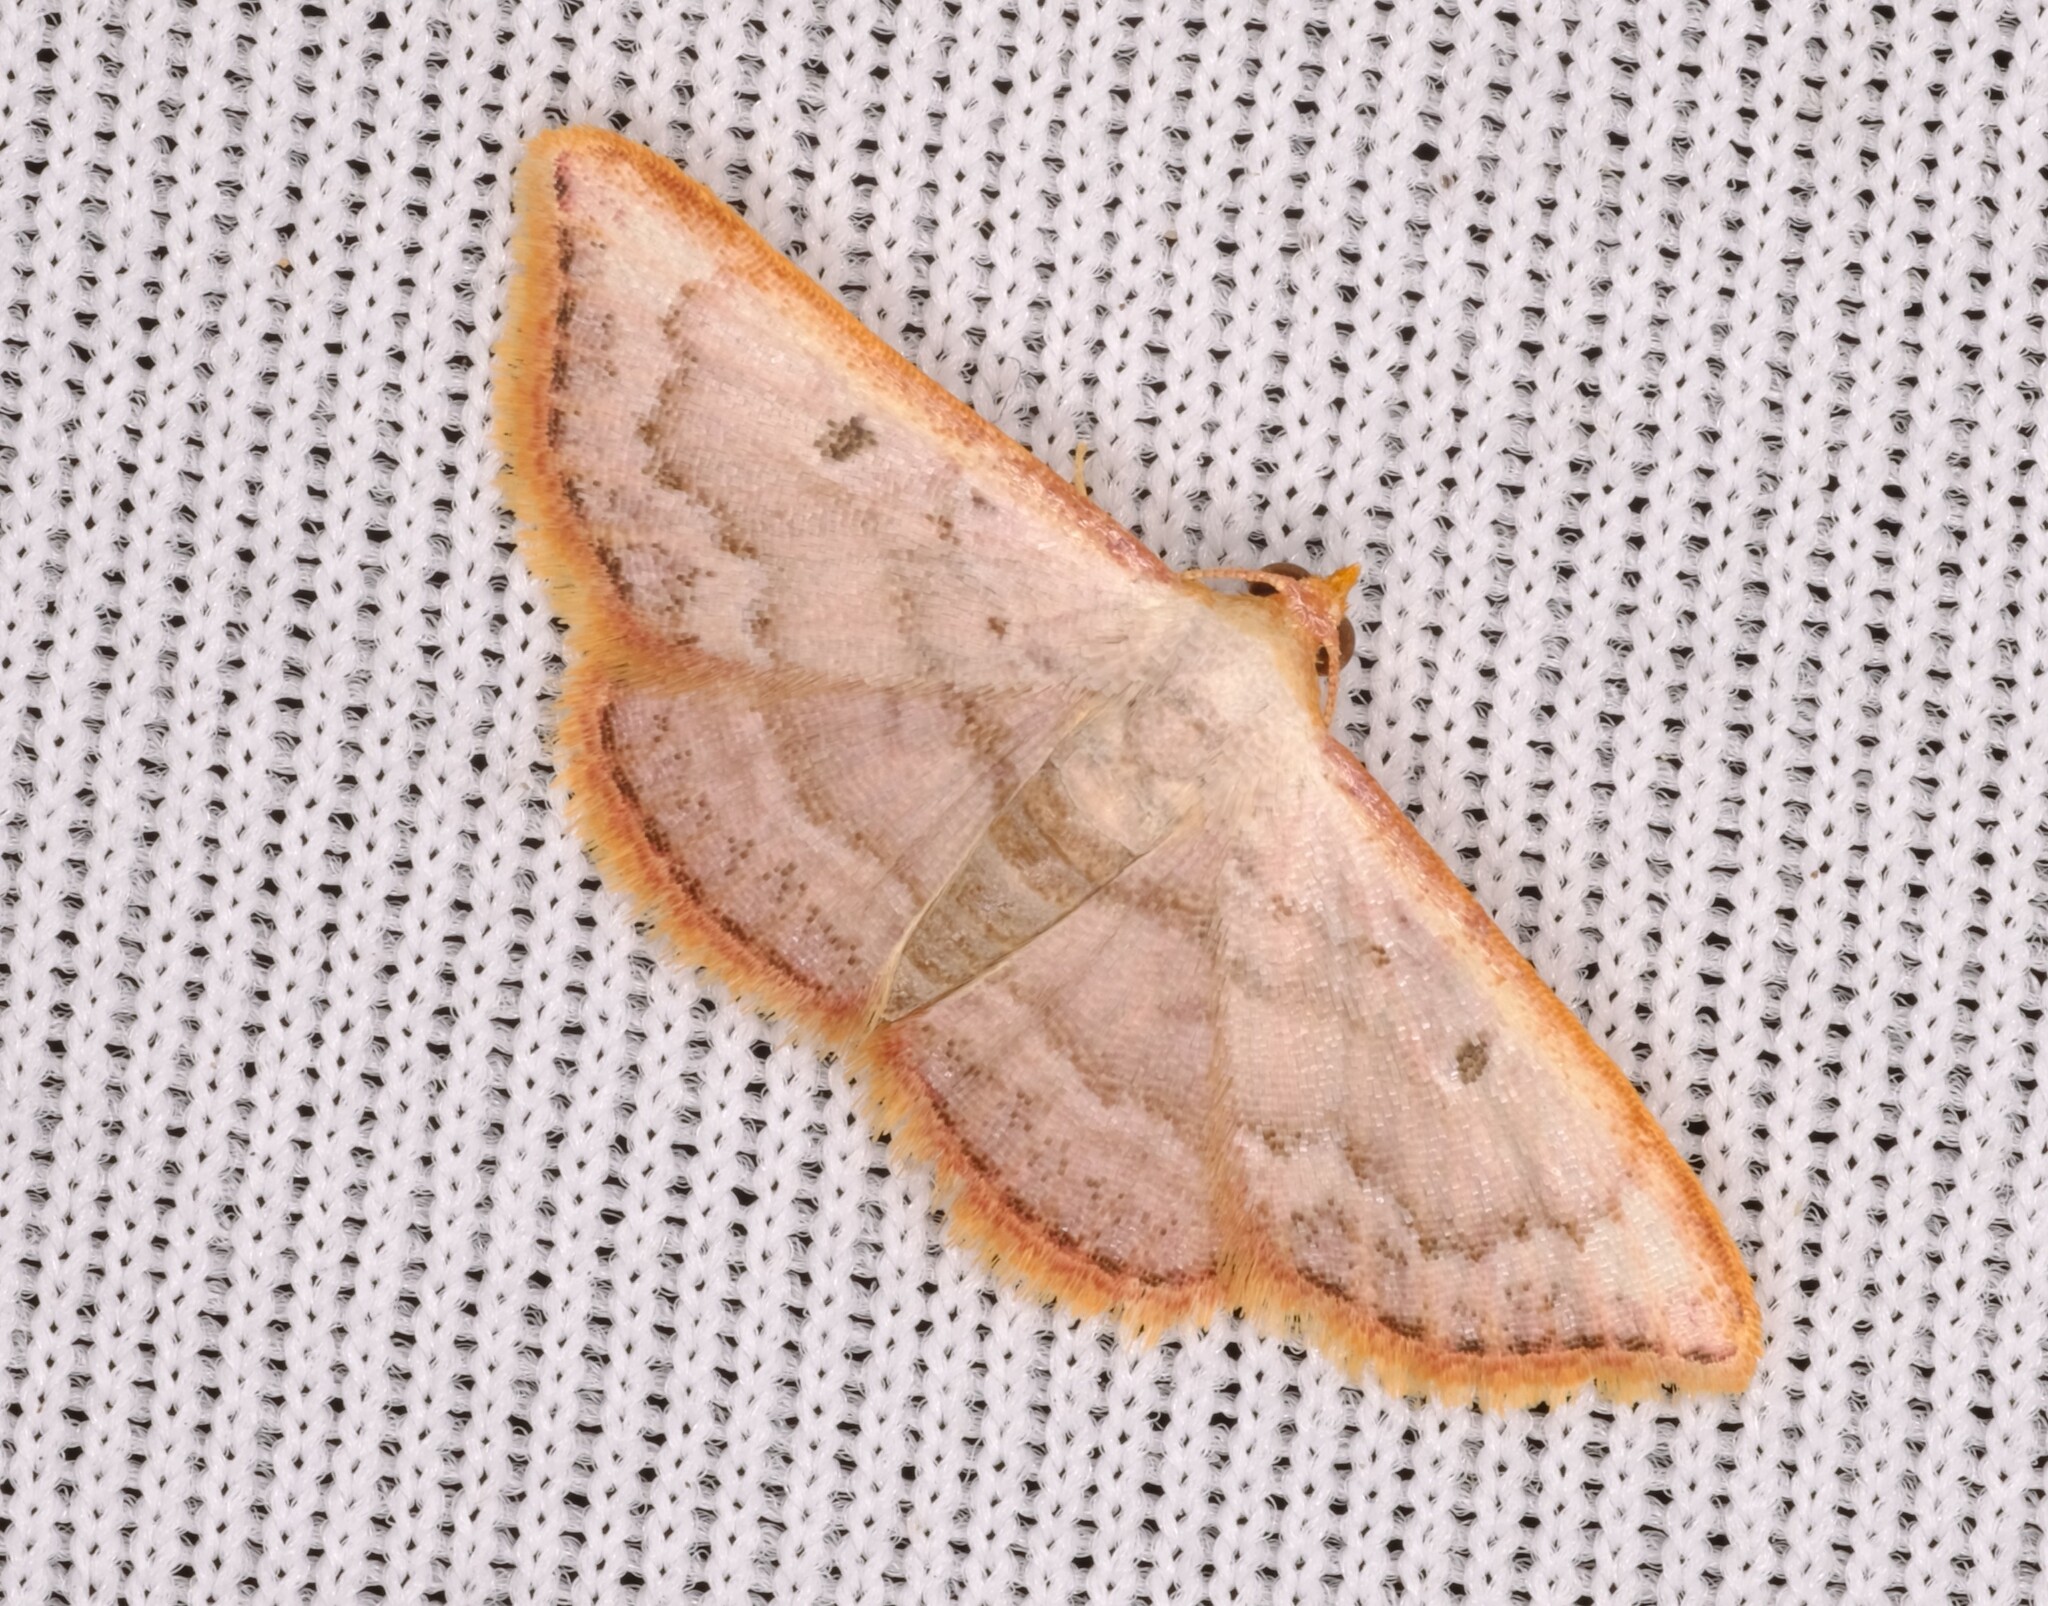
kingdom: Animalia
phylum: Arthropoda
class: Insecta
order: Lepidoptera
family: Noctuidae
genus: Enispa
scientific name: Enispa daphoena
